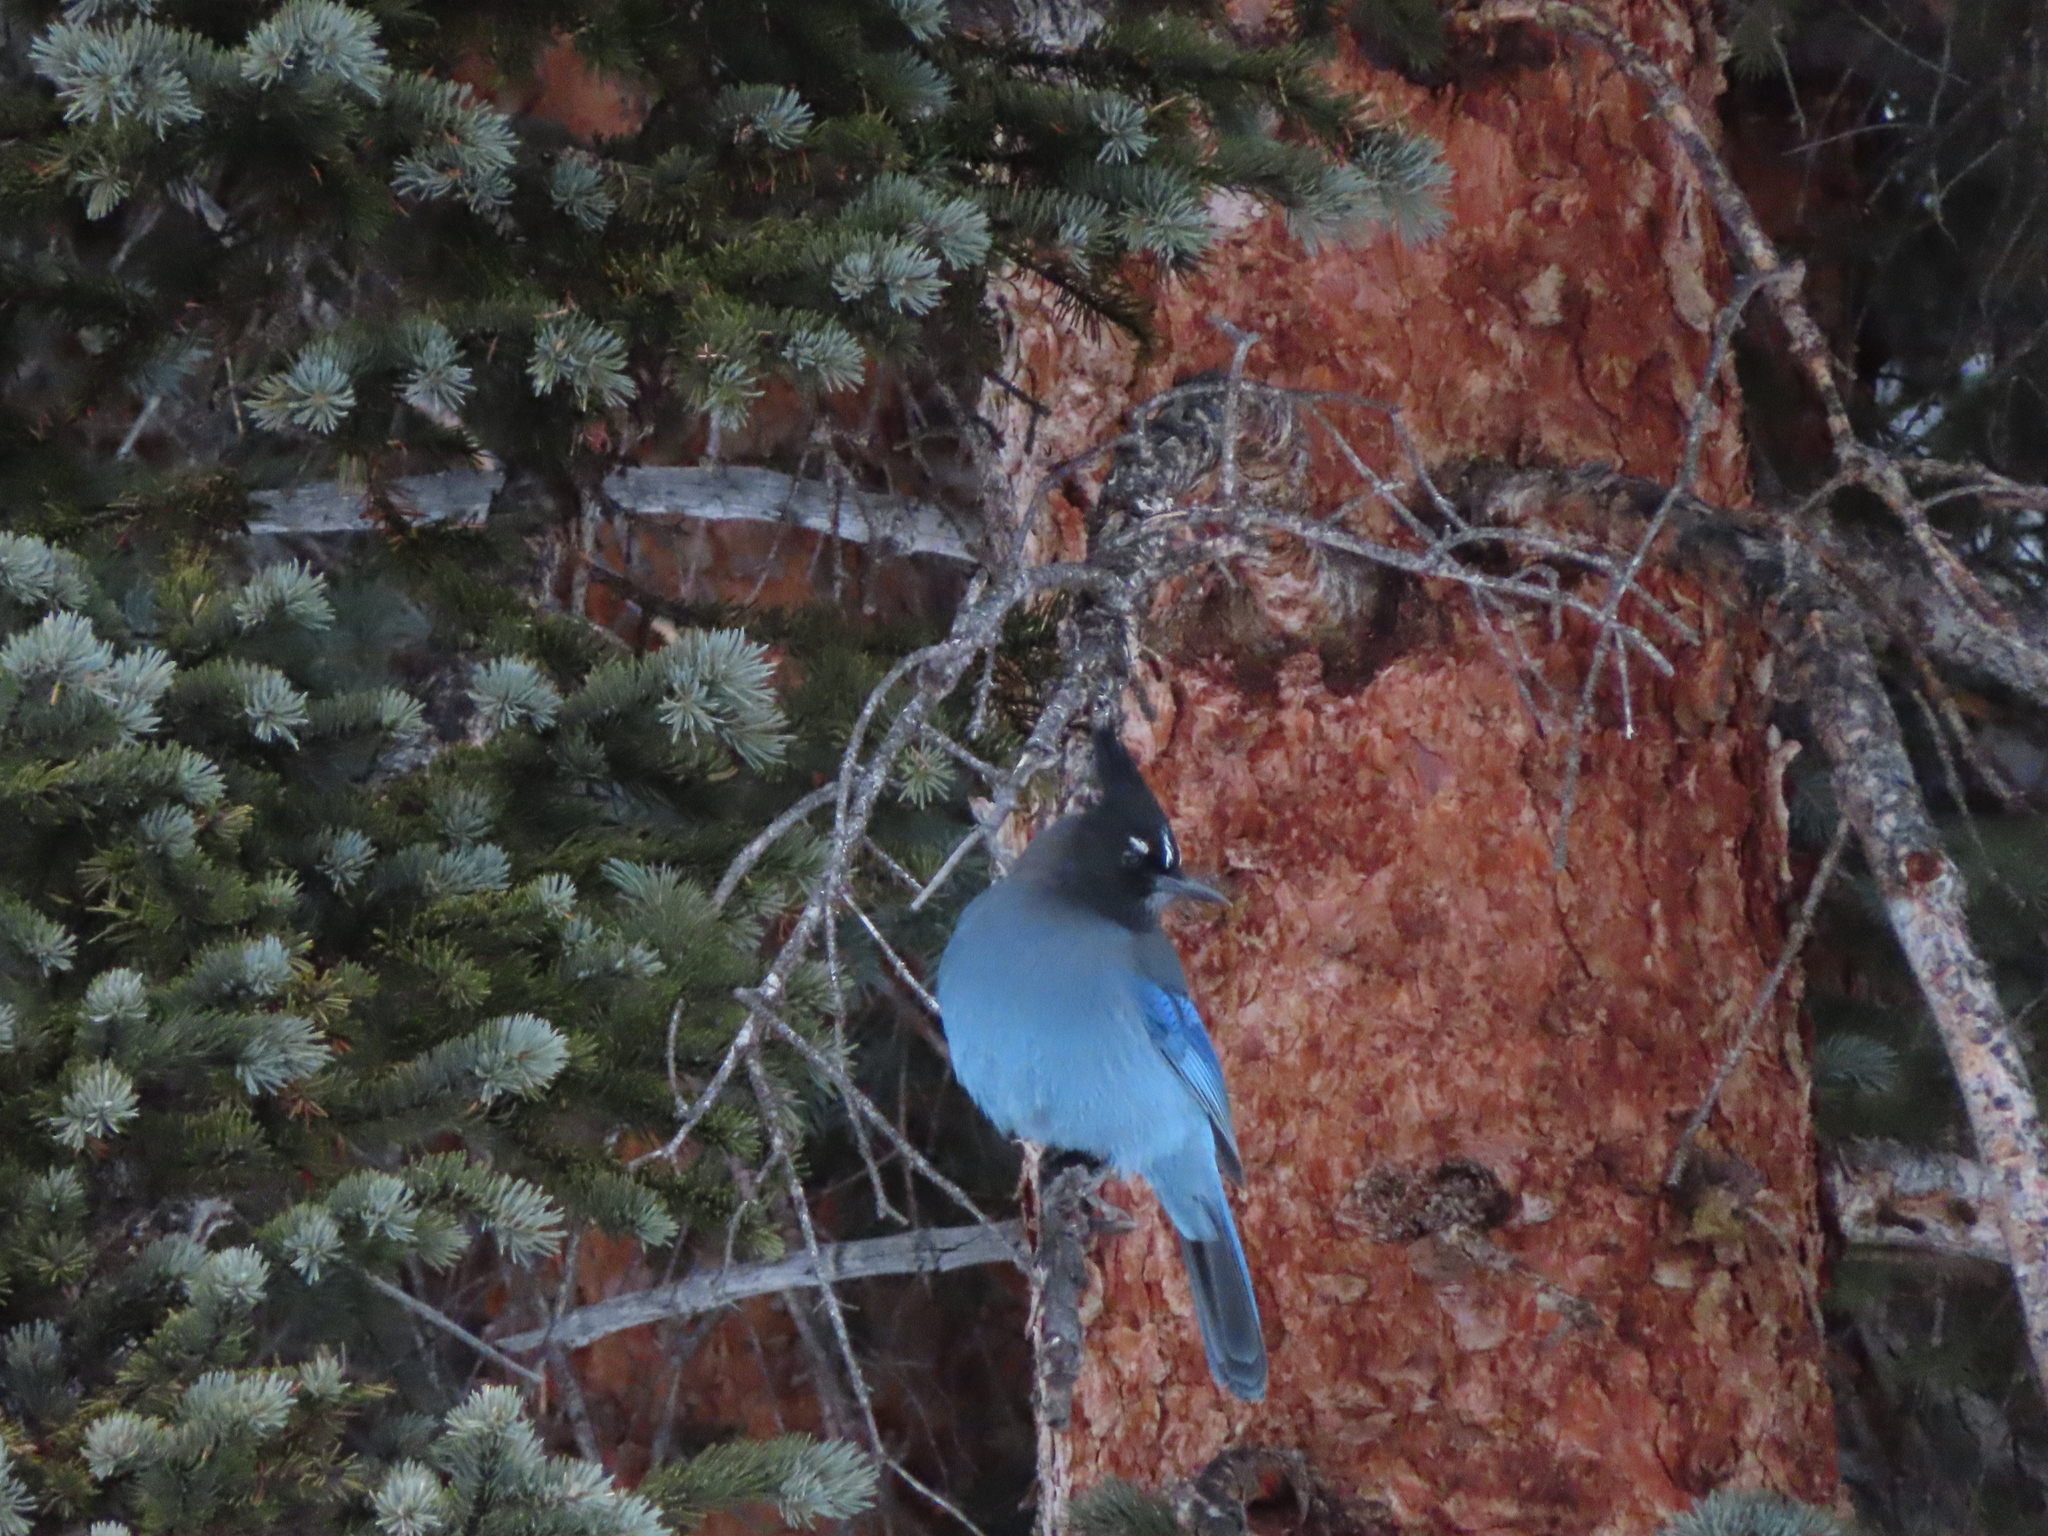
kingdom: Animalia
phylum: Chordata
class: Aves
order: Passeriformes
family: Corvidae
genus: Cyanocitta
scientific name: Cyanocitta stelleri
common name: Steller's jay
